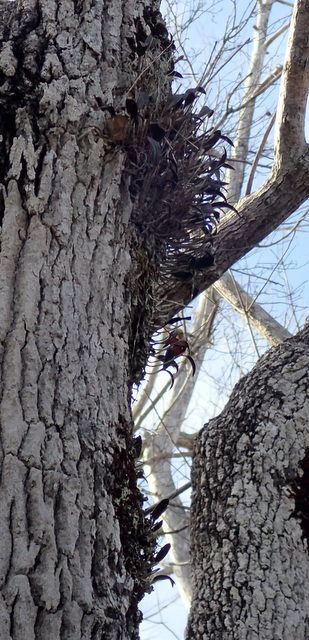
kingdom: Plantae
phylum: Tracheophyta
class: Liliopsida
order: Asparagales
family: Orchidaceae
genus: Epidendrum
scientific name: Epidendrum conopseum
